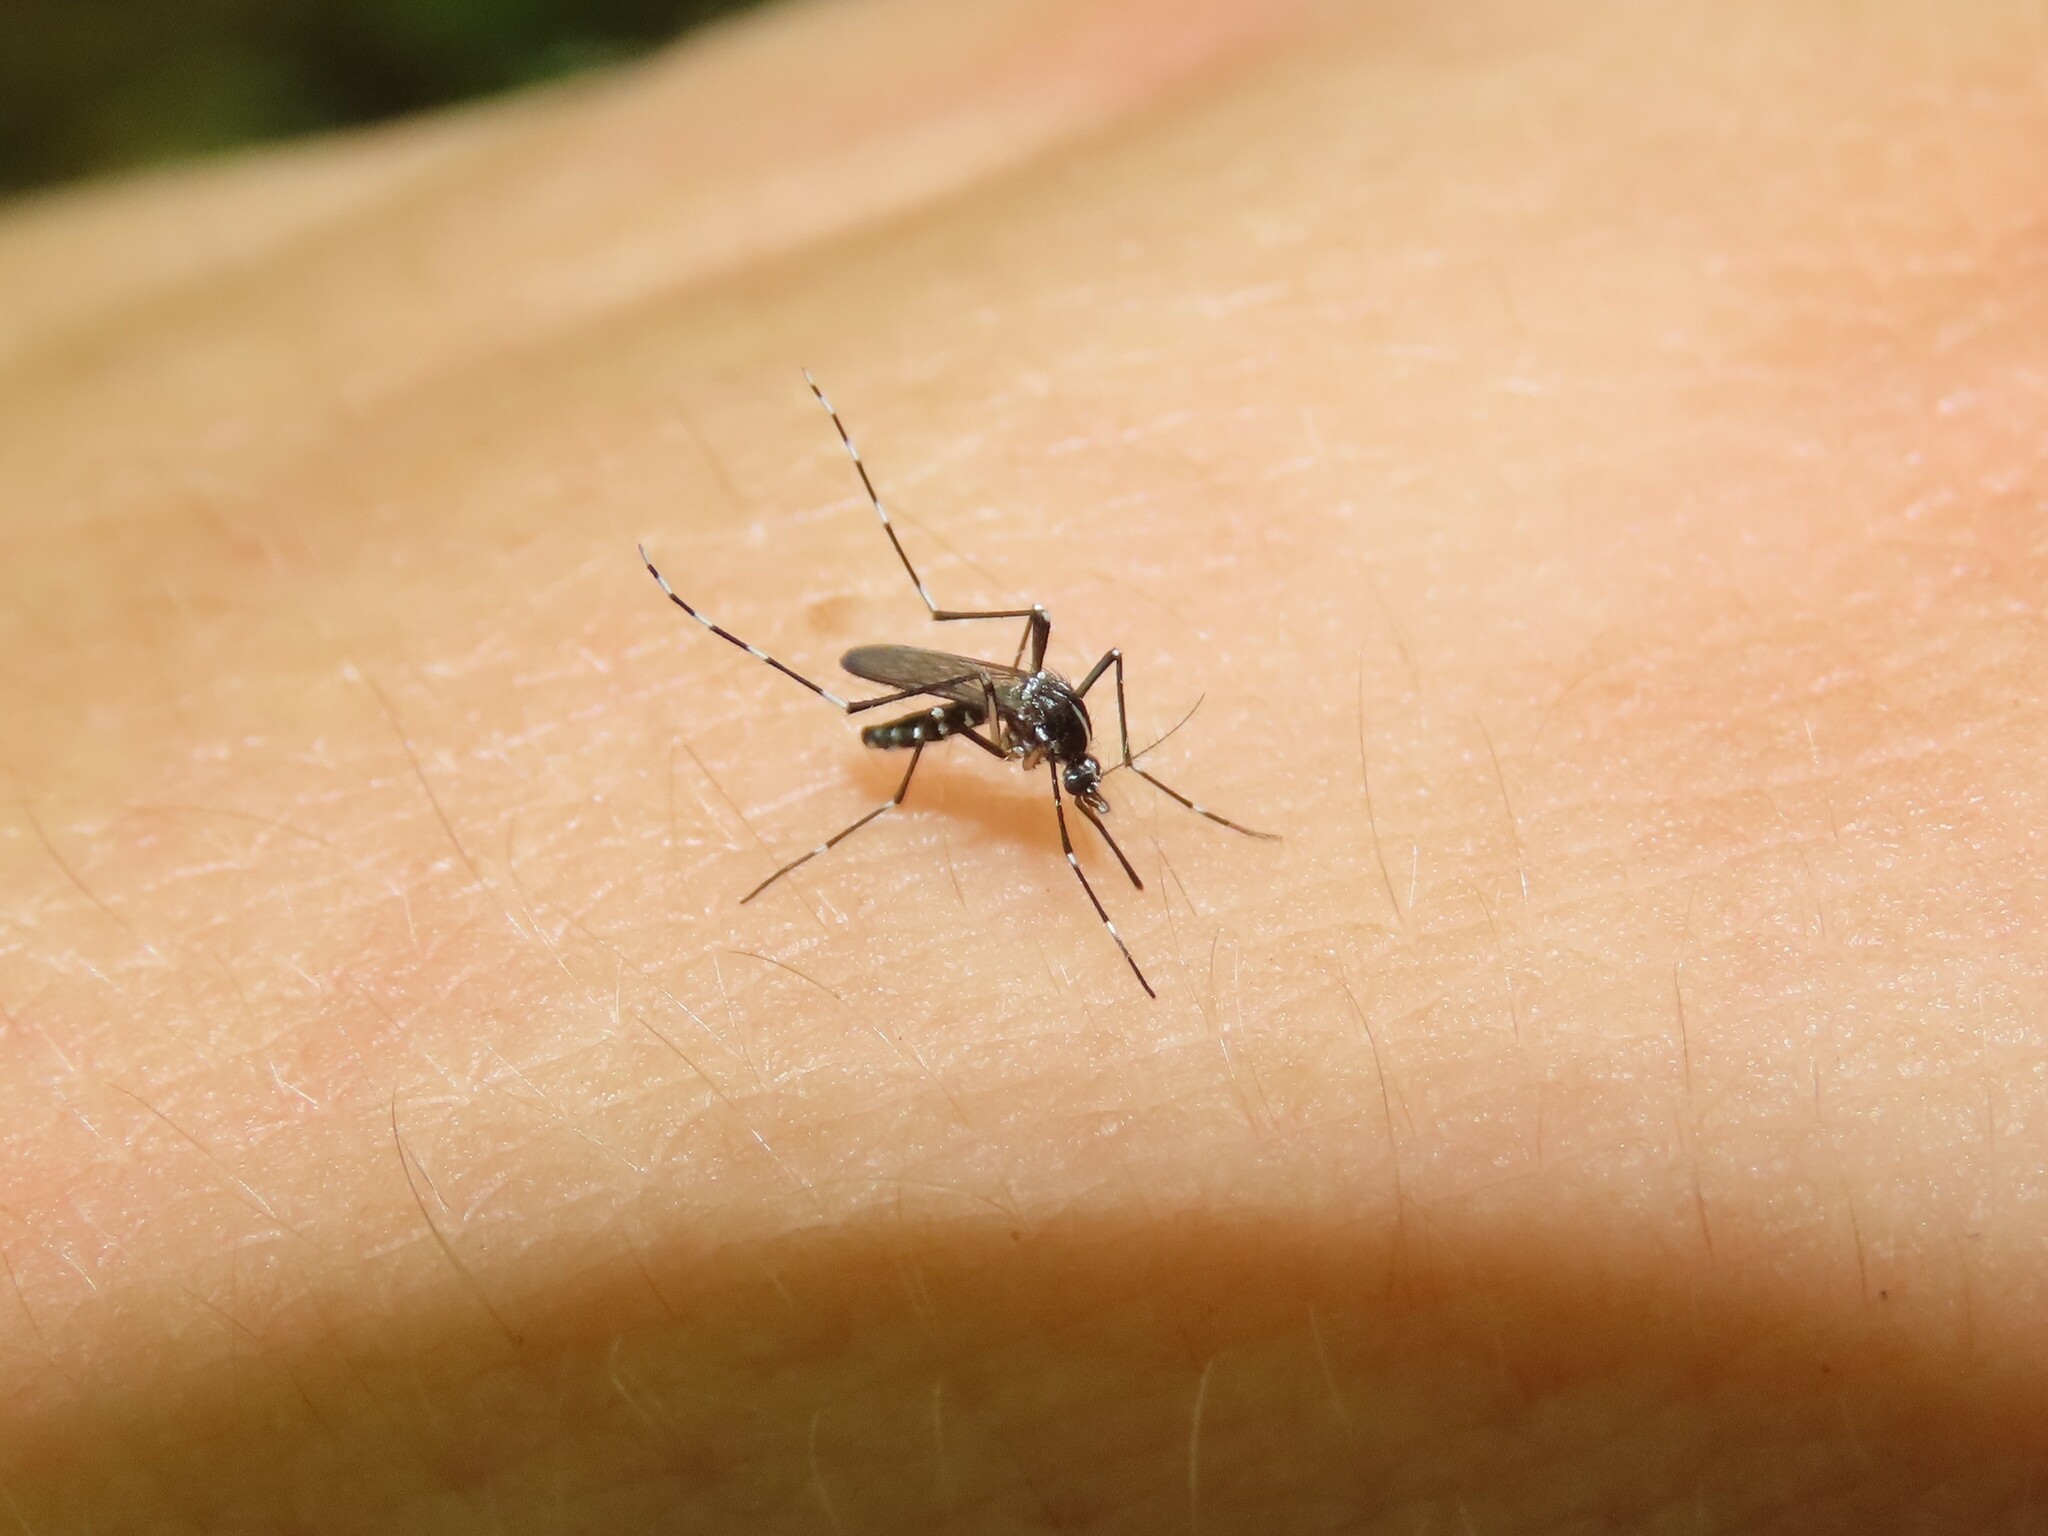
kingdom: Animalia
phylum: Arthropoda
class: Insecta
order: Diptera
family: Culicidae
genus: Aedes
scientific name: Aedes albopictus
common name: Tiger mosquito
